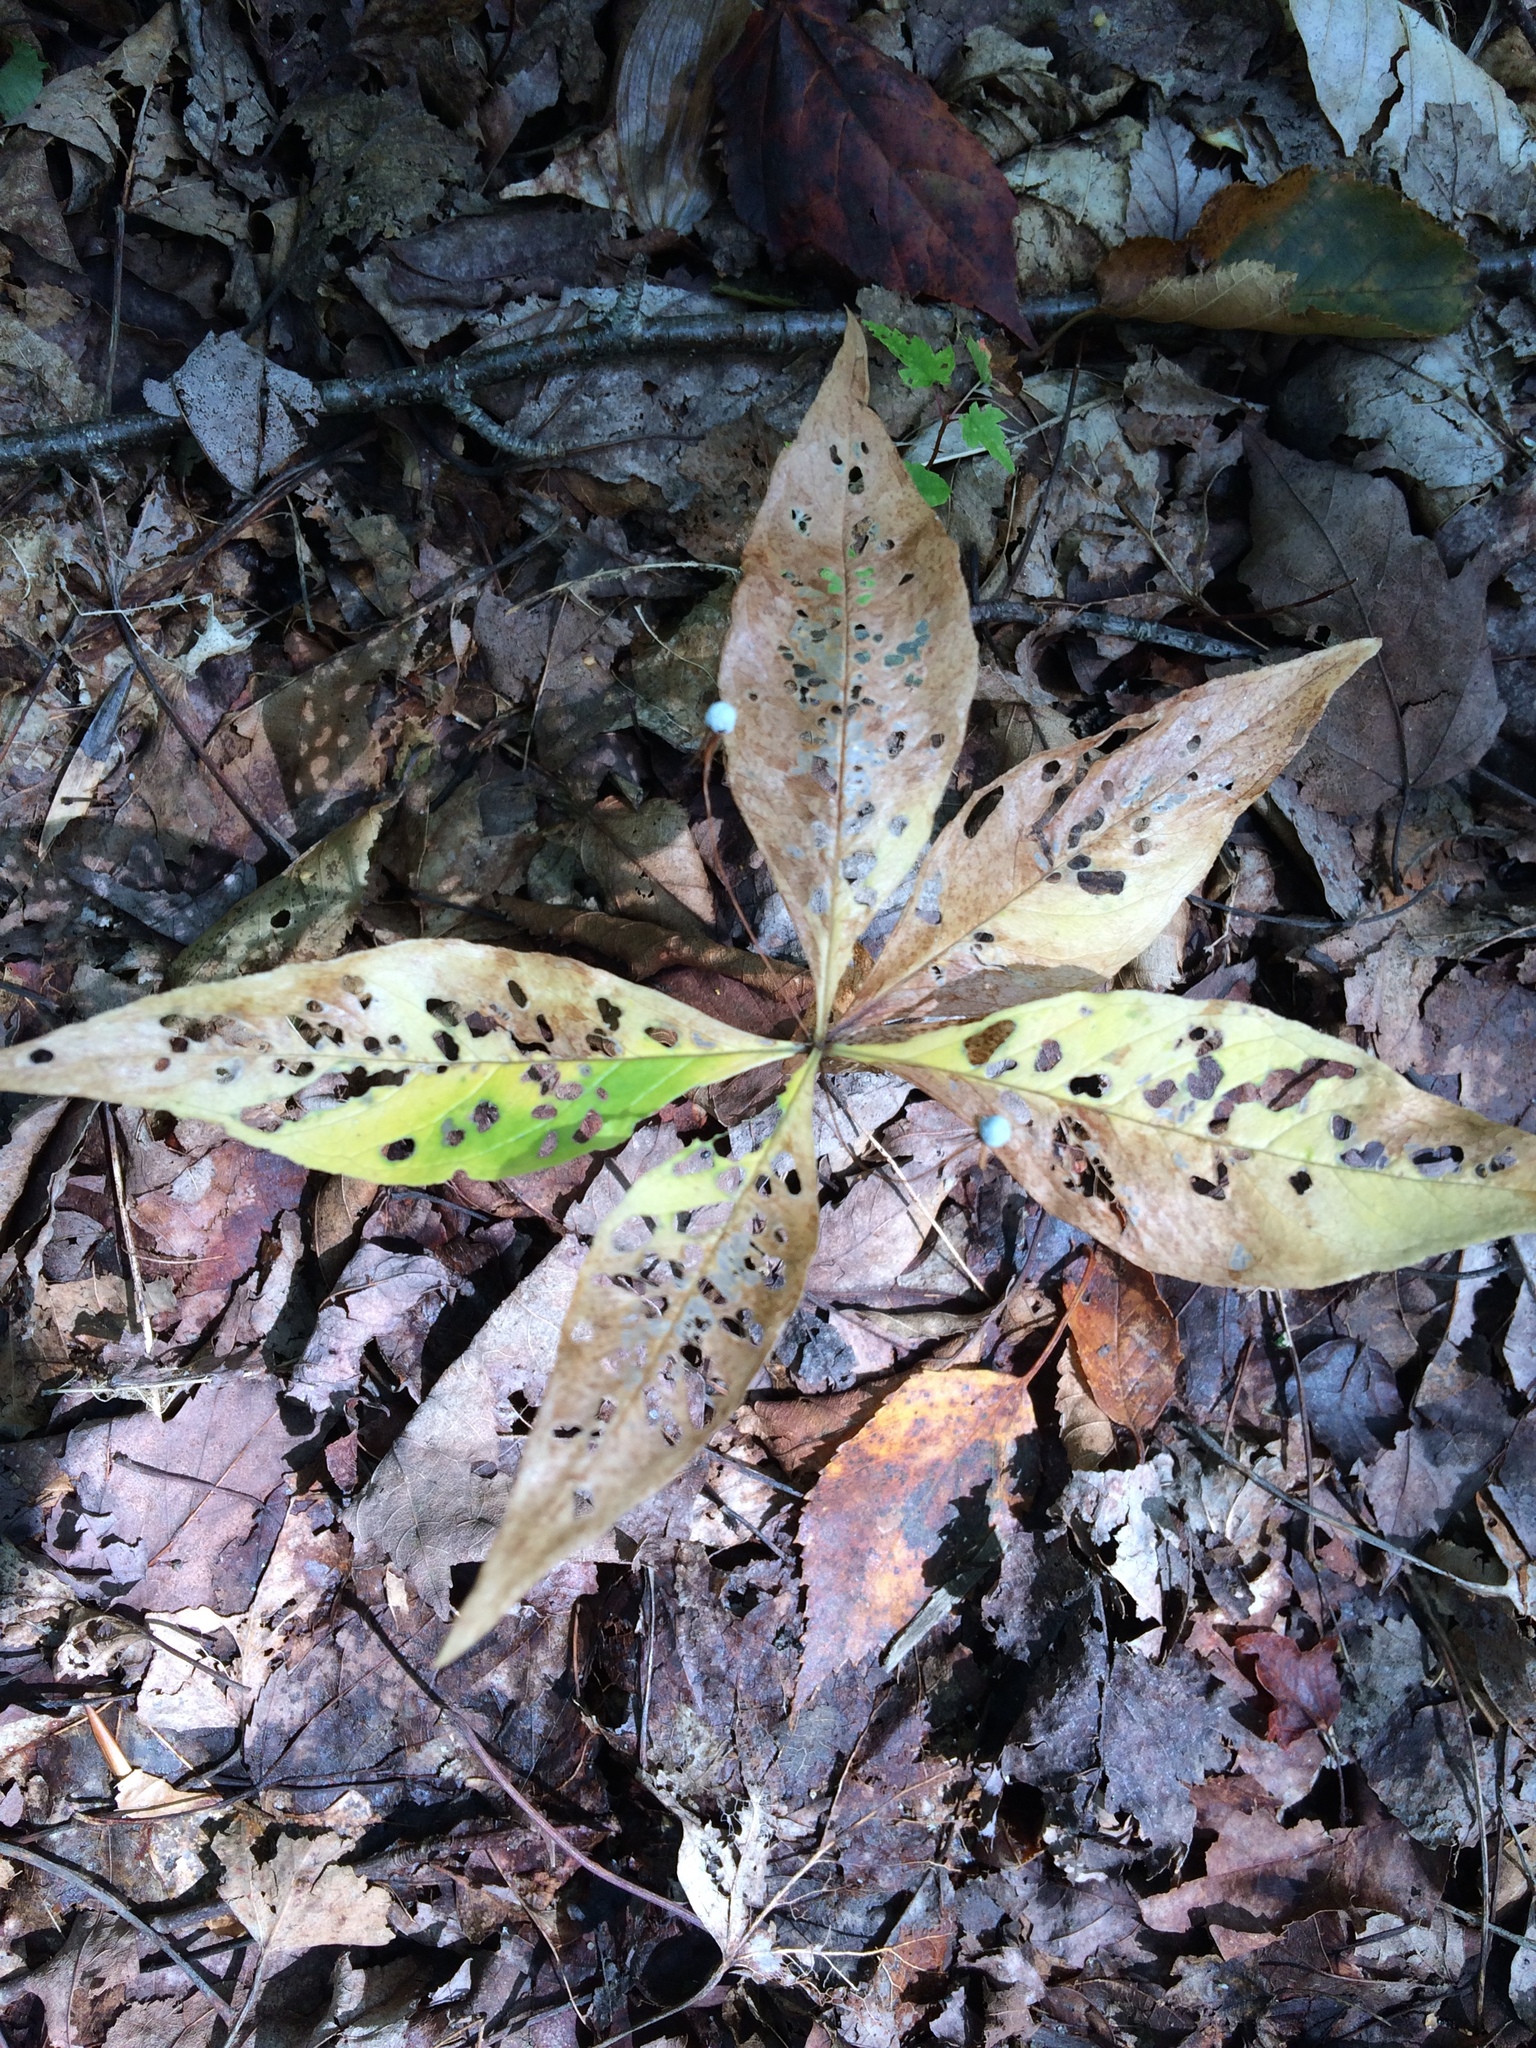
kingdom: Plantae
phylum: Tracheophyta
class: Magnoliopsida
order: Ericales
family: Primulaceae
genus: Lysimachia
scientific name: Lysimachia borealis
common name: American starflower
